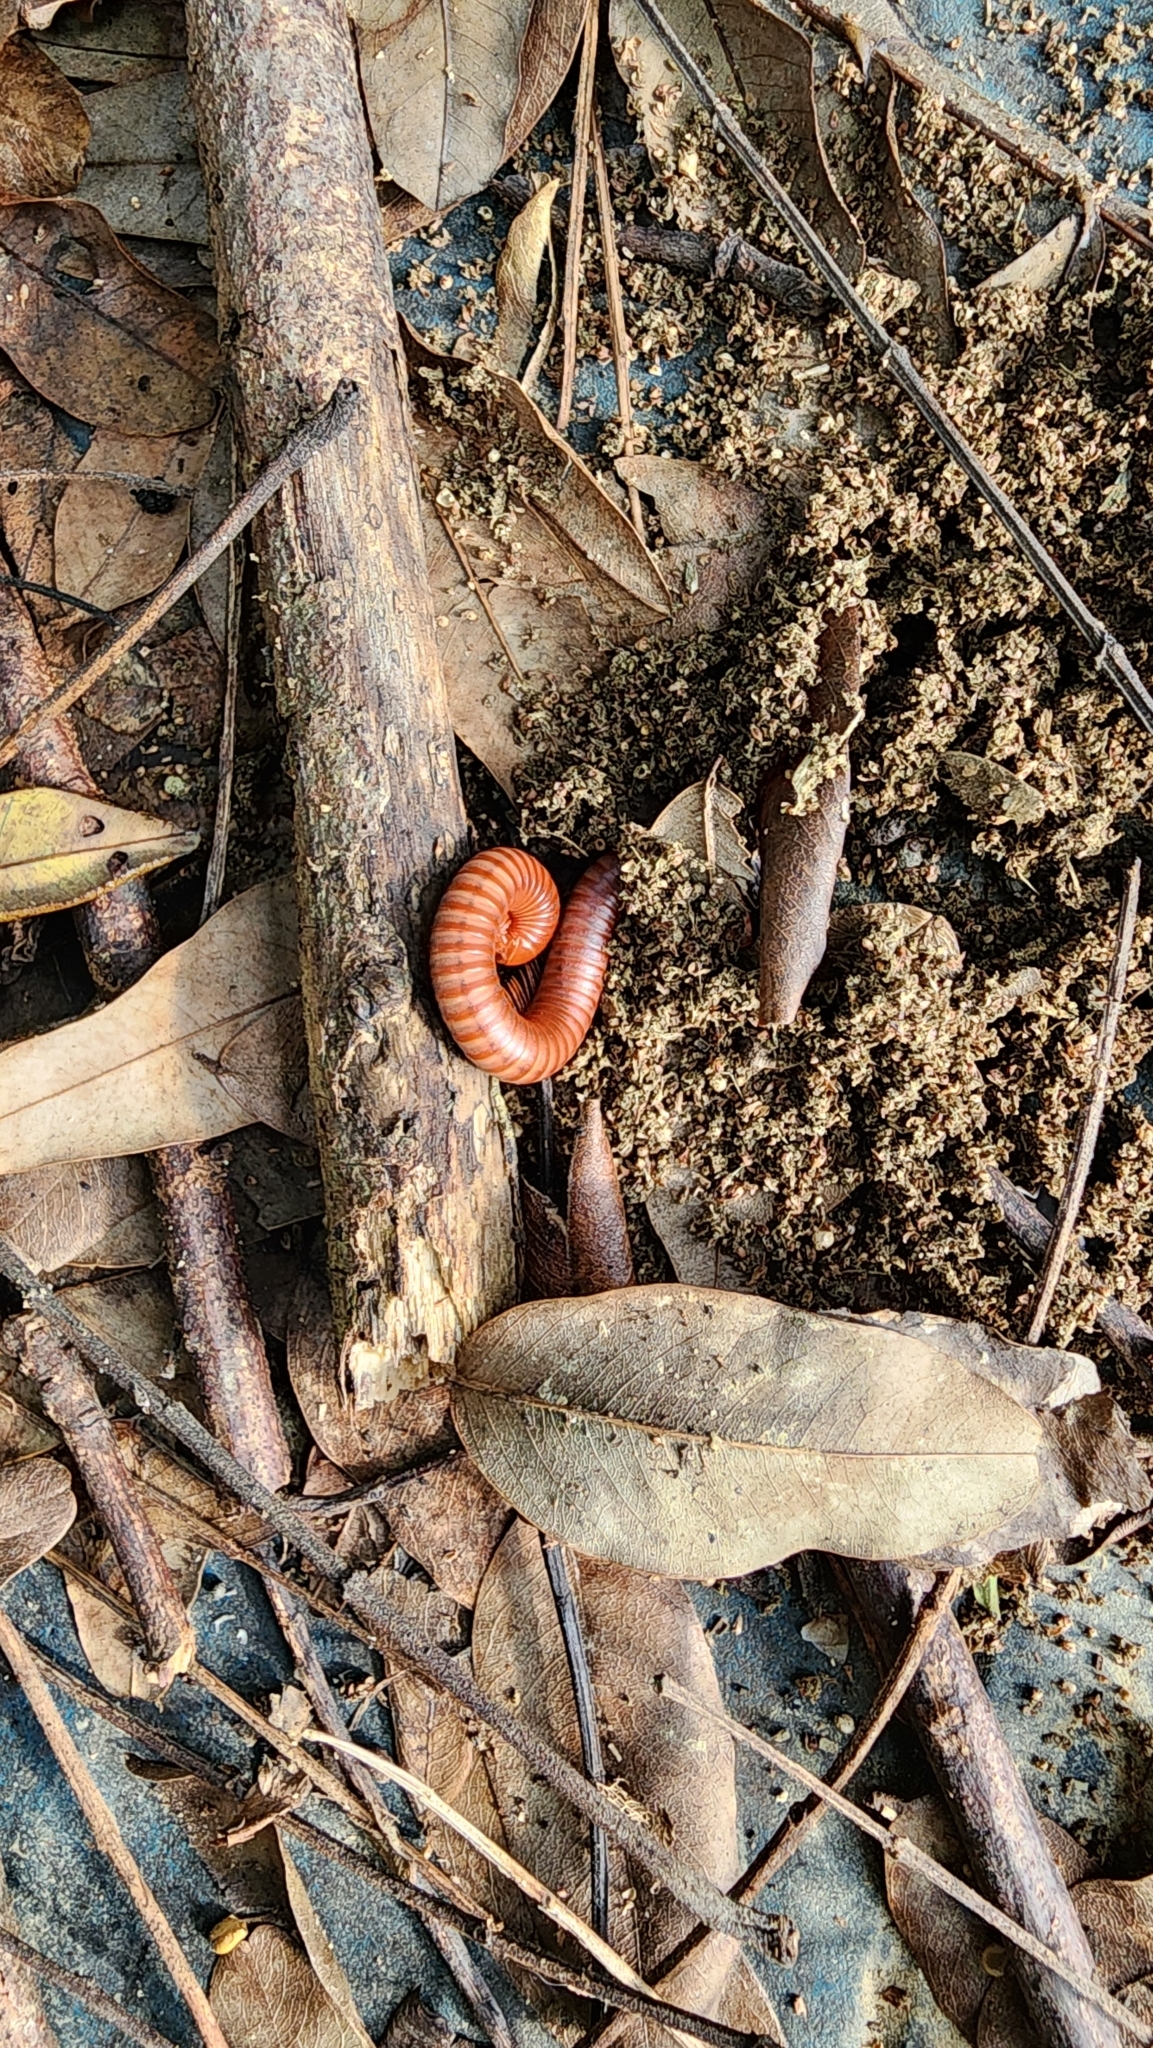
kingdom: Animalia
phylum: Arthropoda
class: Diplopoda
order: Spirobolida
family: Pachybolidae
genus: Trigoniulus
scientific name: Trigoniulus corallinus
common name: Millipede
